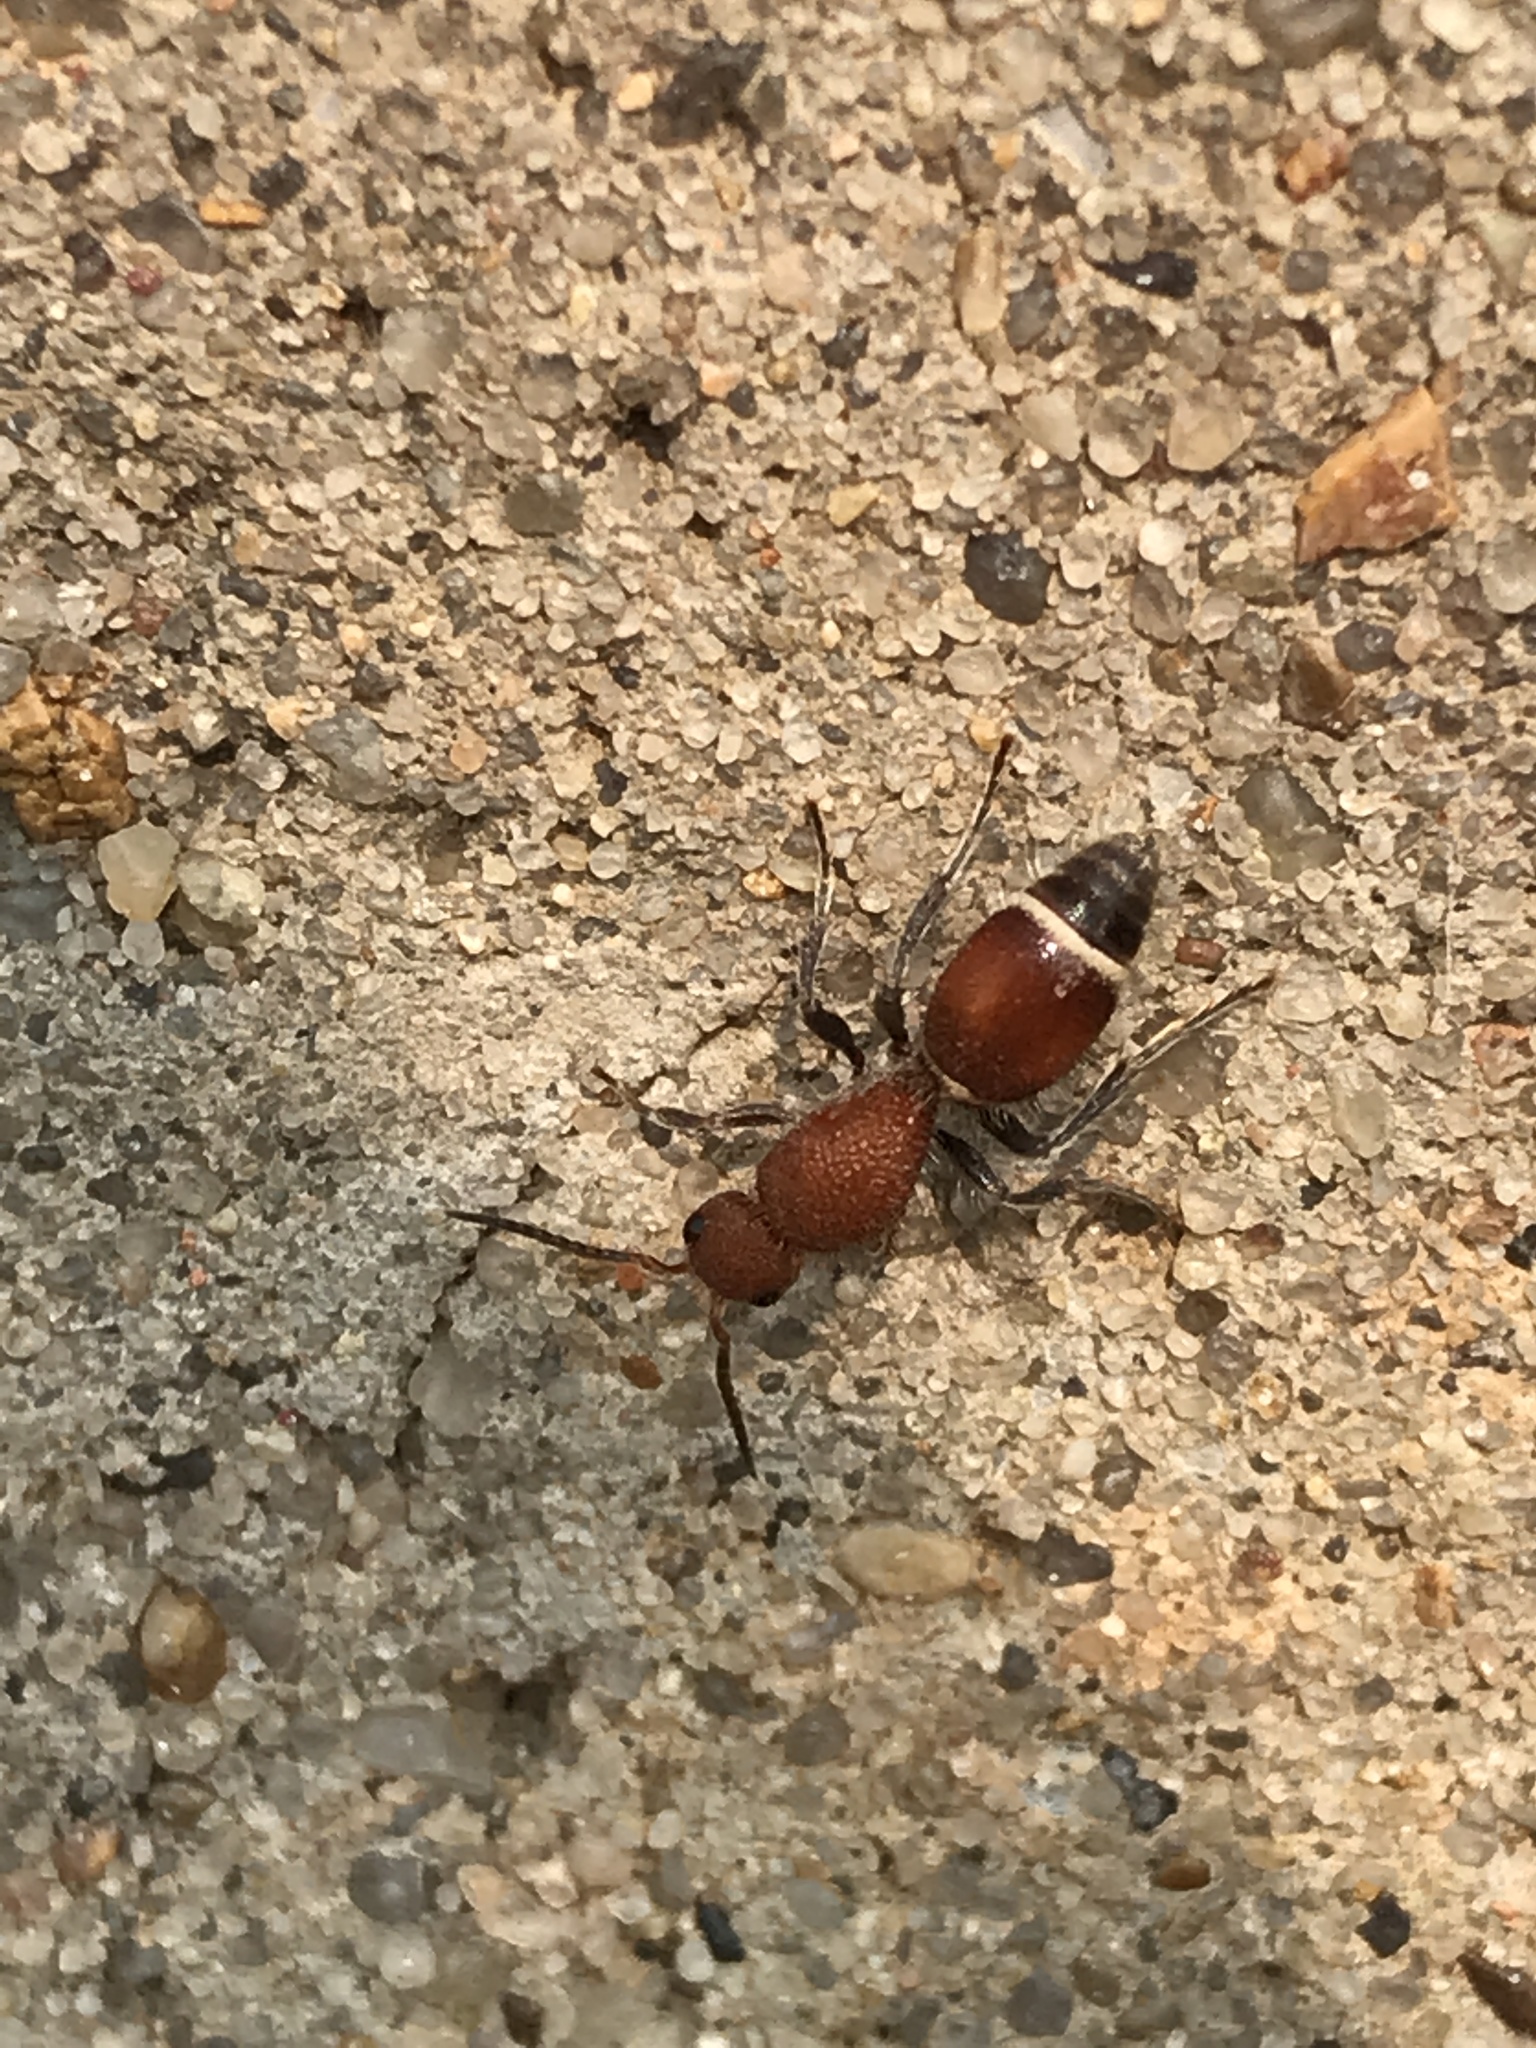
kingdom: Animalia
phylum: Arthropoda
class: Insecta
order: Hymenoptera
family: Mutillidae
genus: Sphaeropthalma
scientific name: Sphaeropthalma
